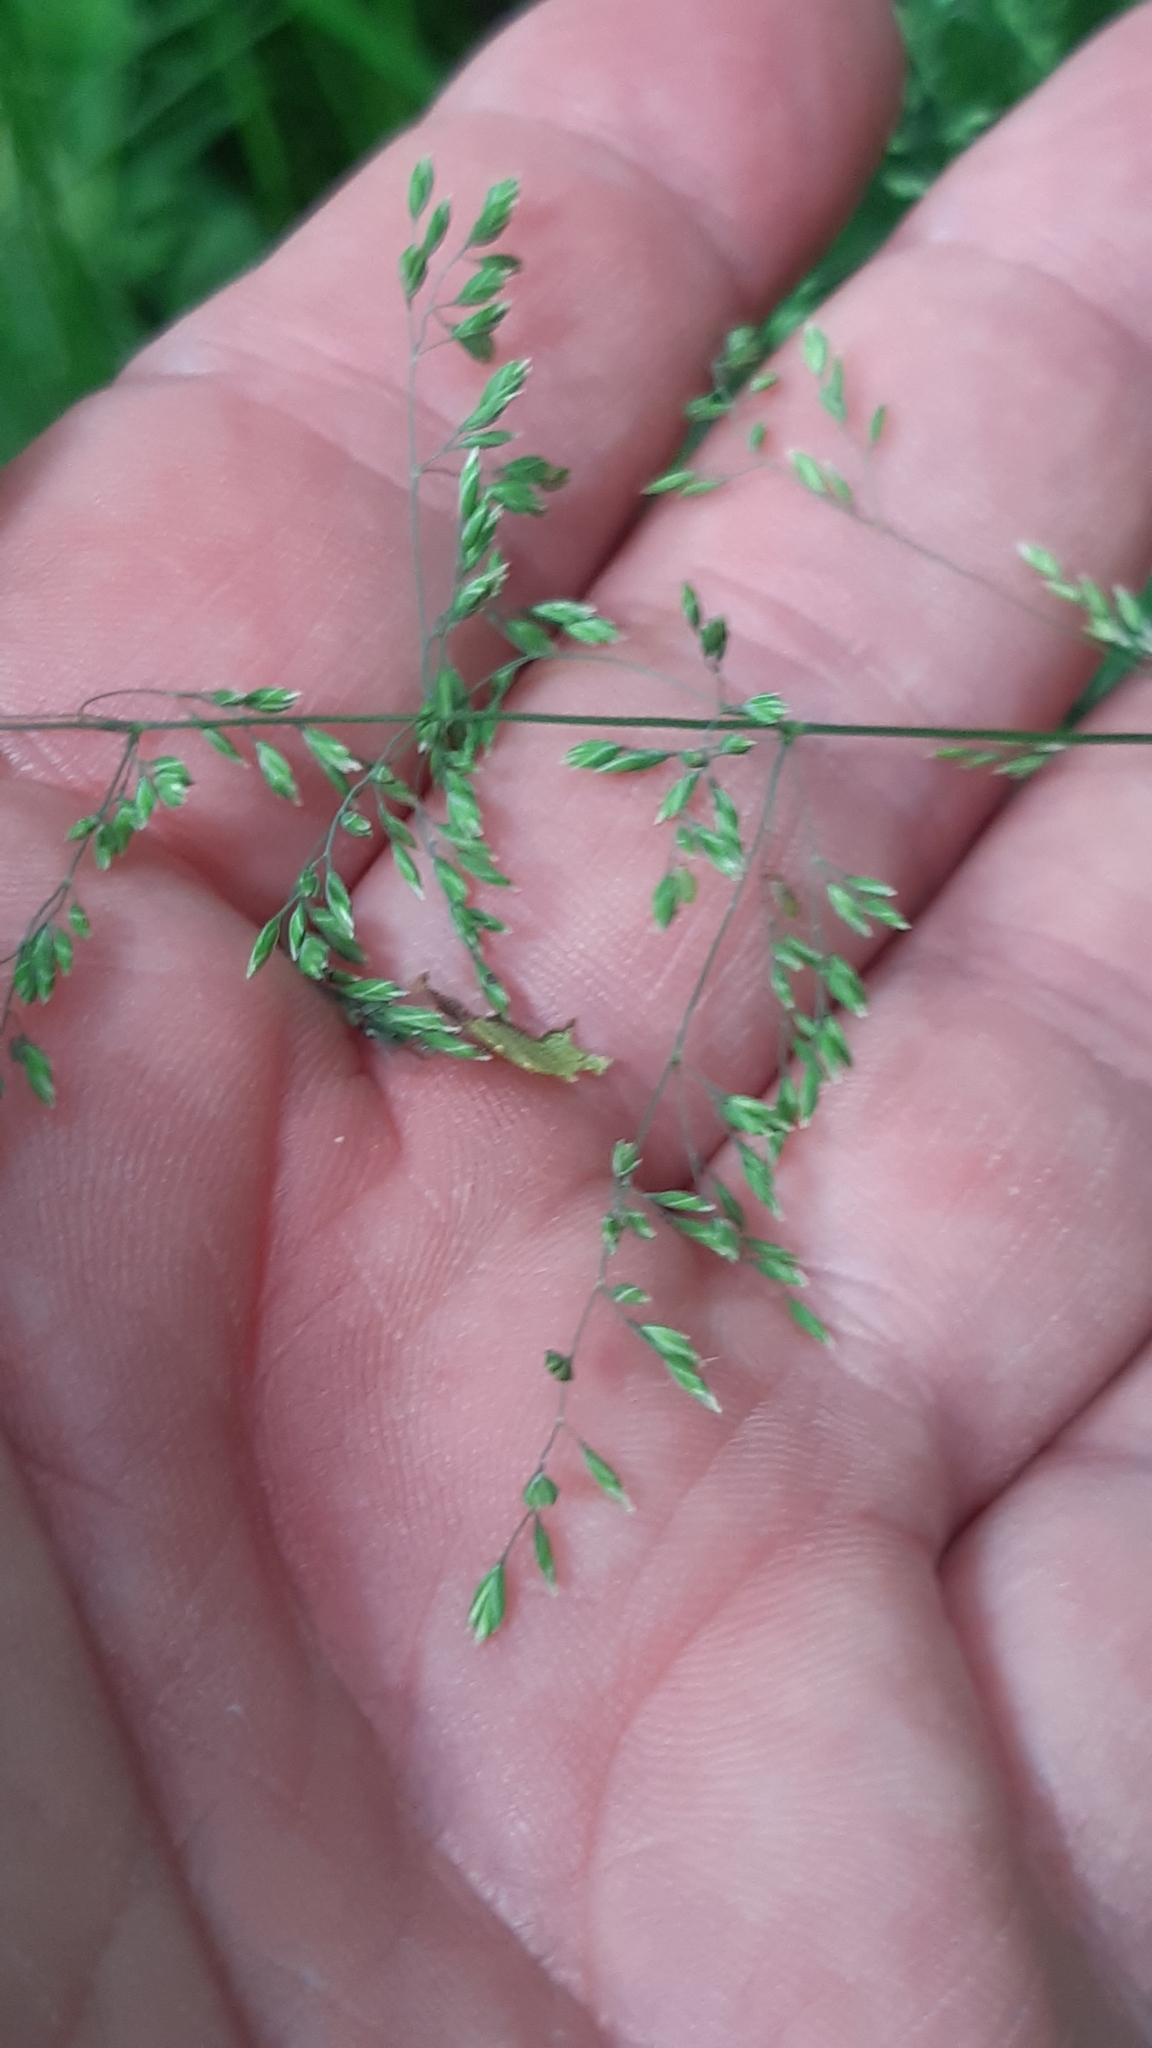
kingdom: Plantae
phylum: Tracheophyta
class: Liliopsida
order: Poales
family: Poaceae
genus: Poa
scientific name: Poa trivialis
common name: Rough bluegrass
